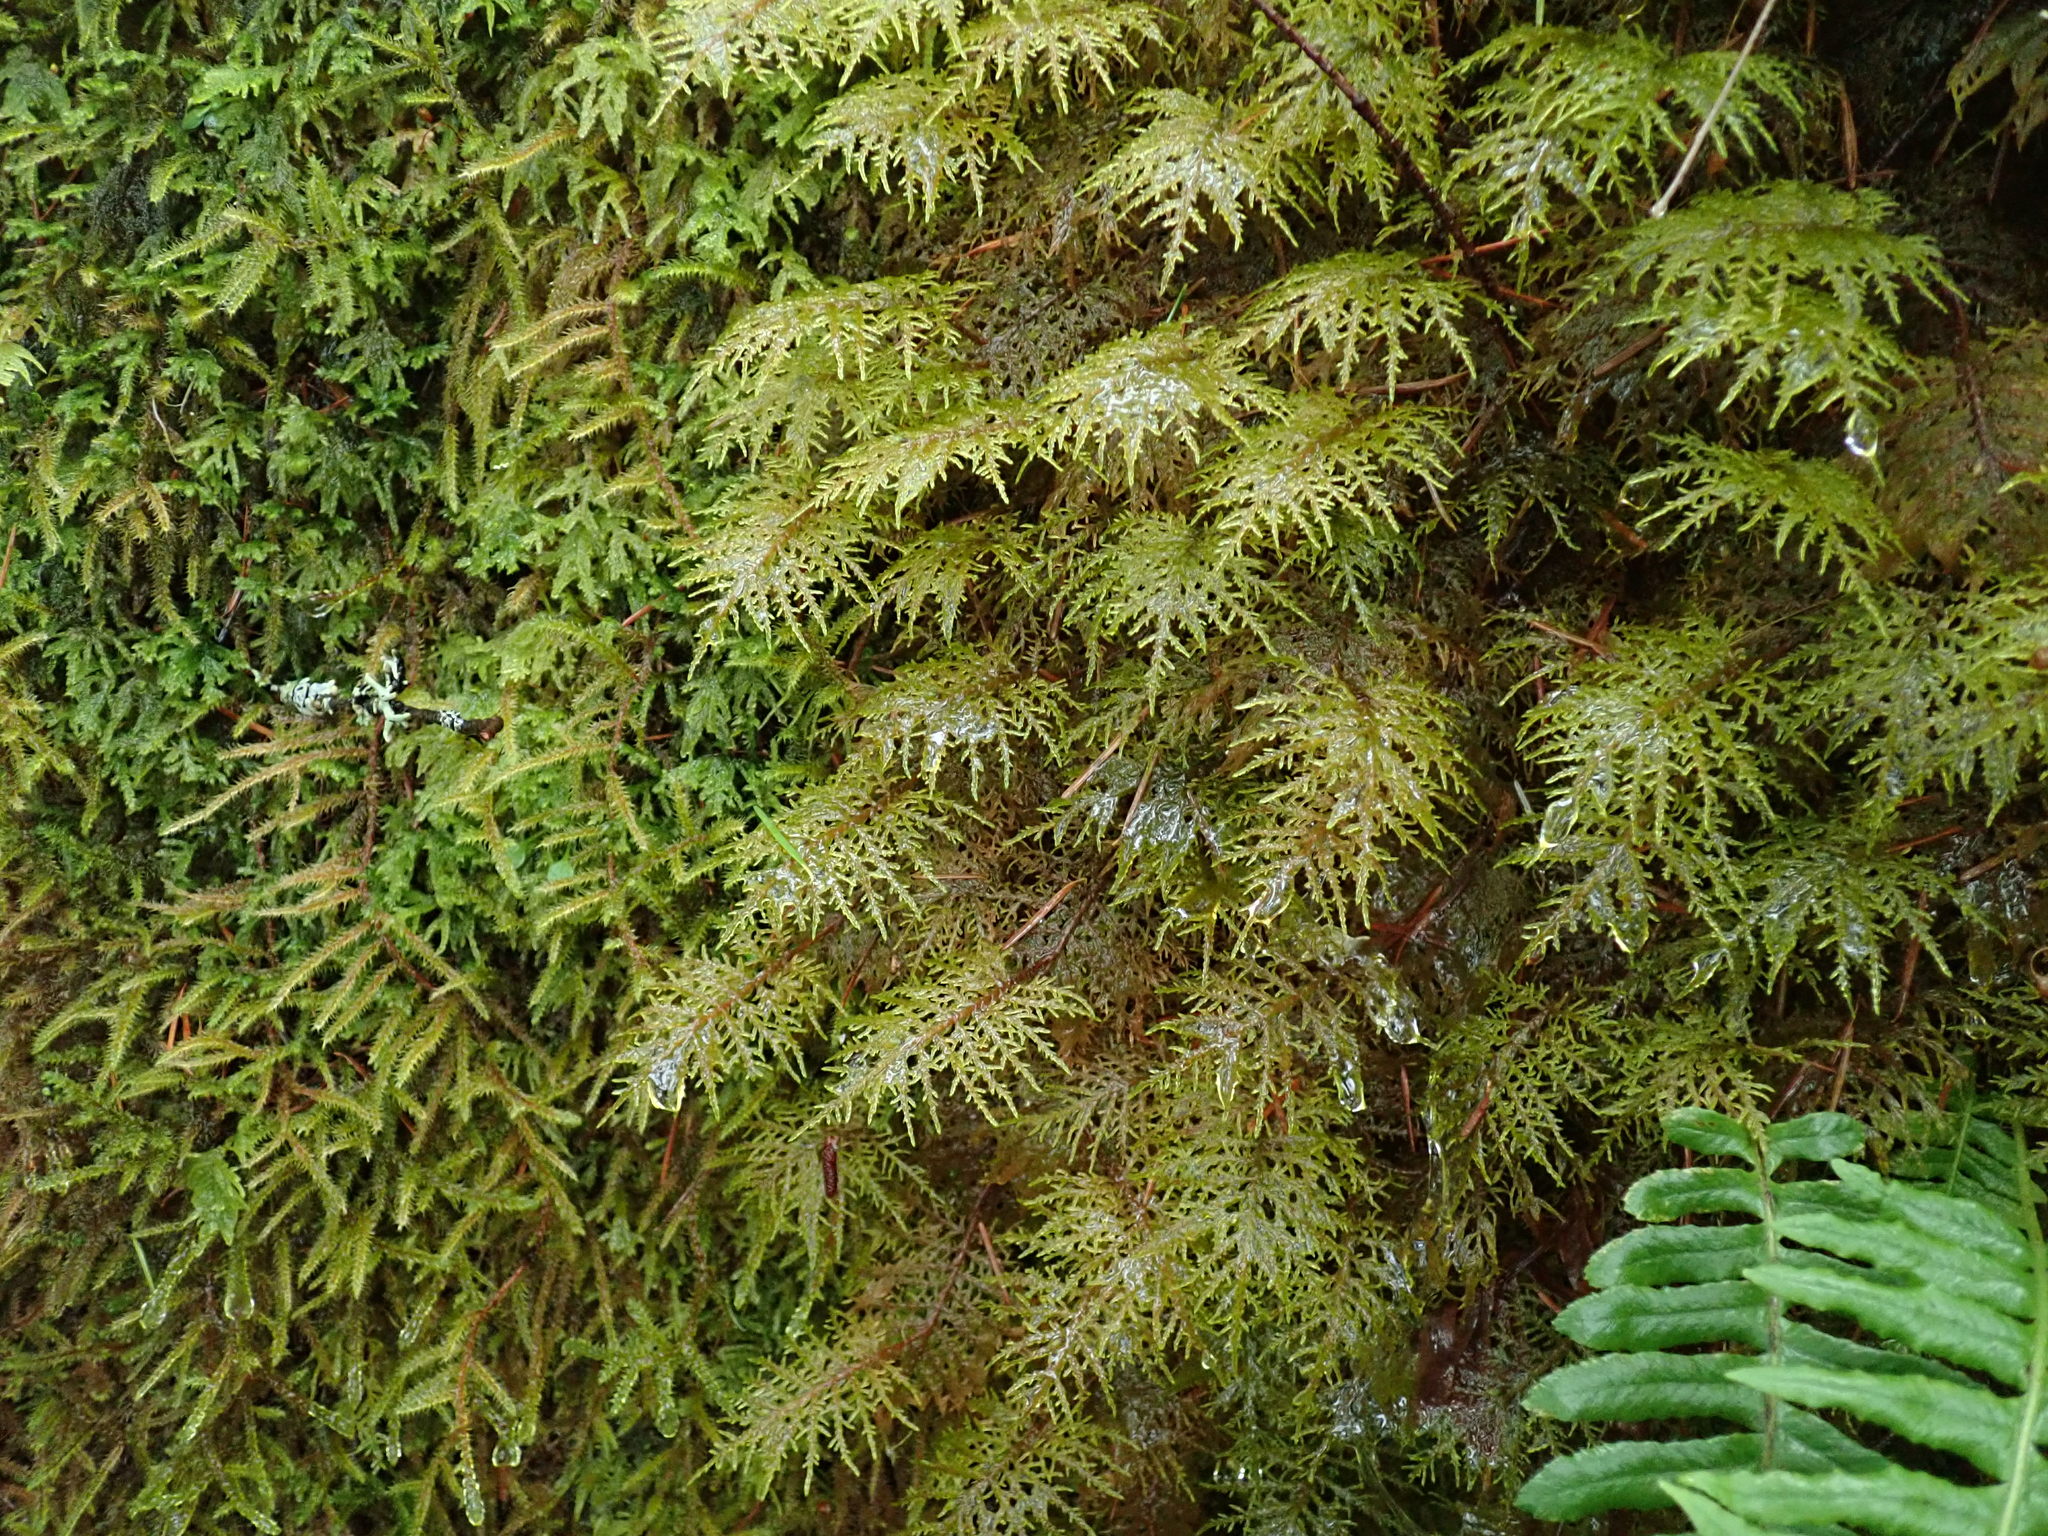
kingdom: Plantae
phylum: Bryophyta
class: Bryopsida
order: Hypnales
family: Hylocomiaceae
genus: Hylocomium
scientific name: Hylocomium splendens
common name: Stairstep moss
